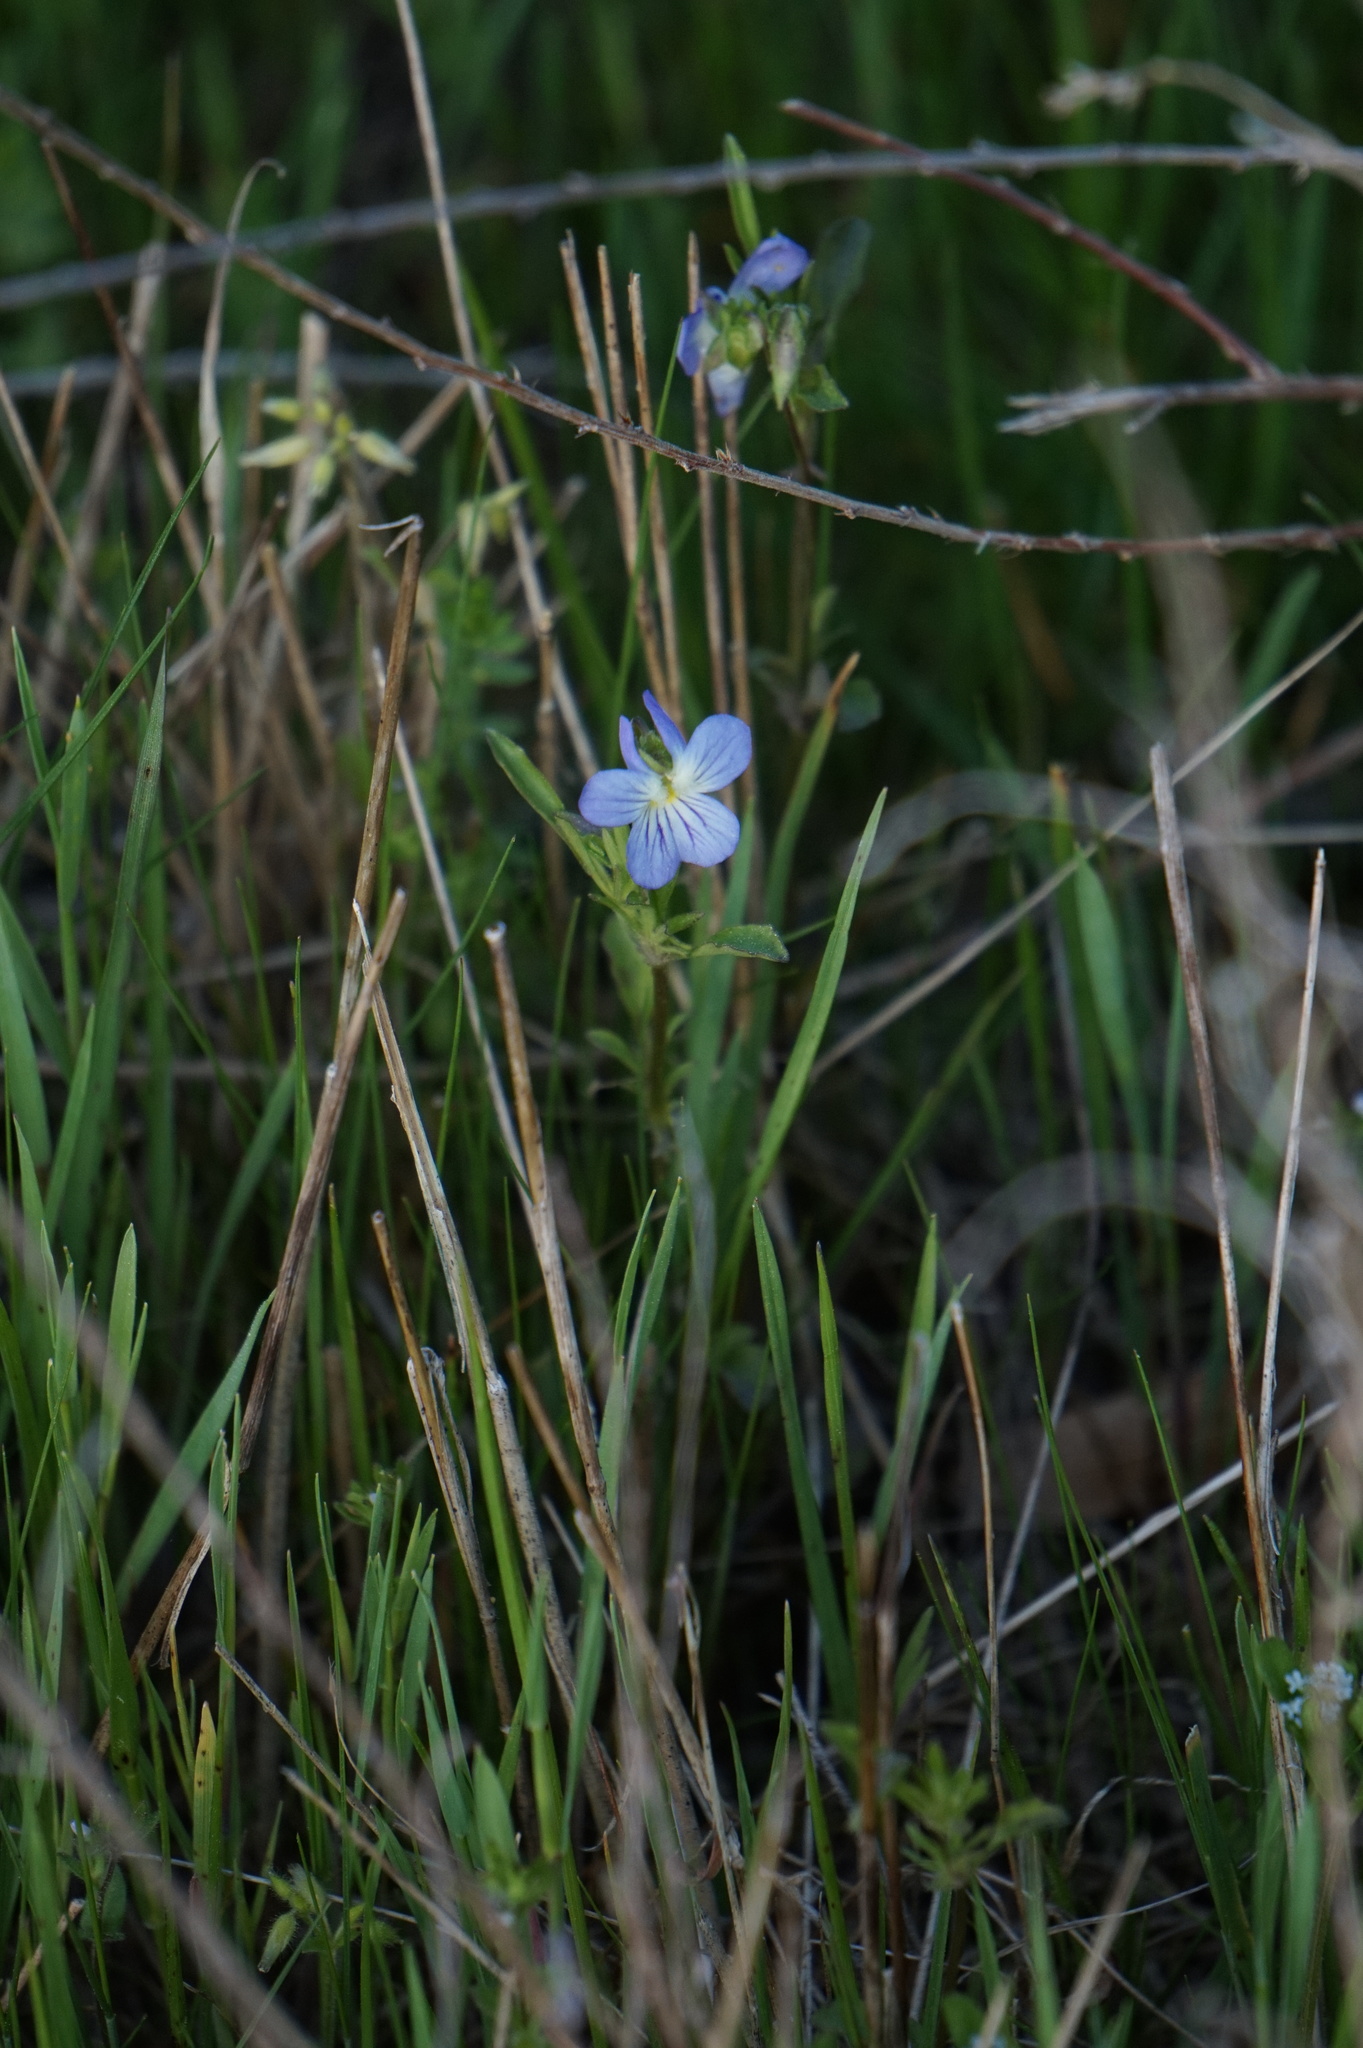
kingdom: Plantae
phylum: Tracheophyta
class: Magnoliopsida
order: Malpighiales
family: Violaceae
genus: Viola
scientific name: Viola rafinesquei
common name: American field pansy
